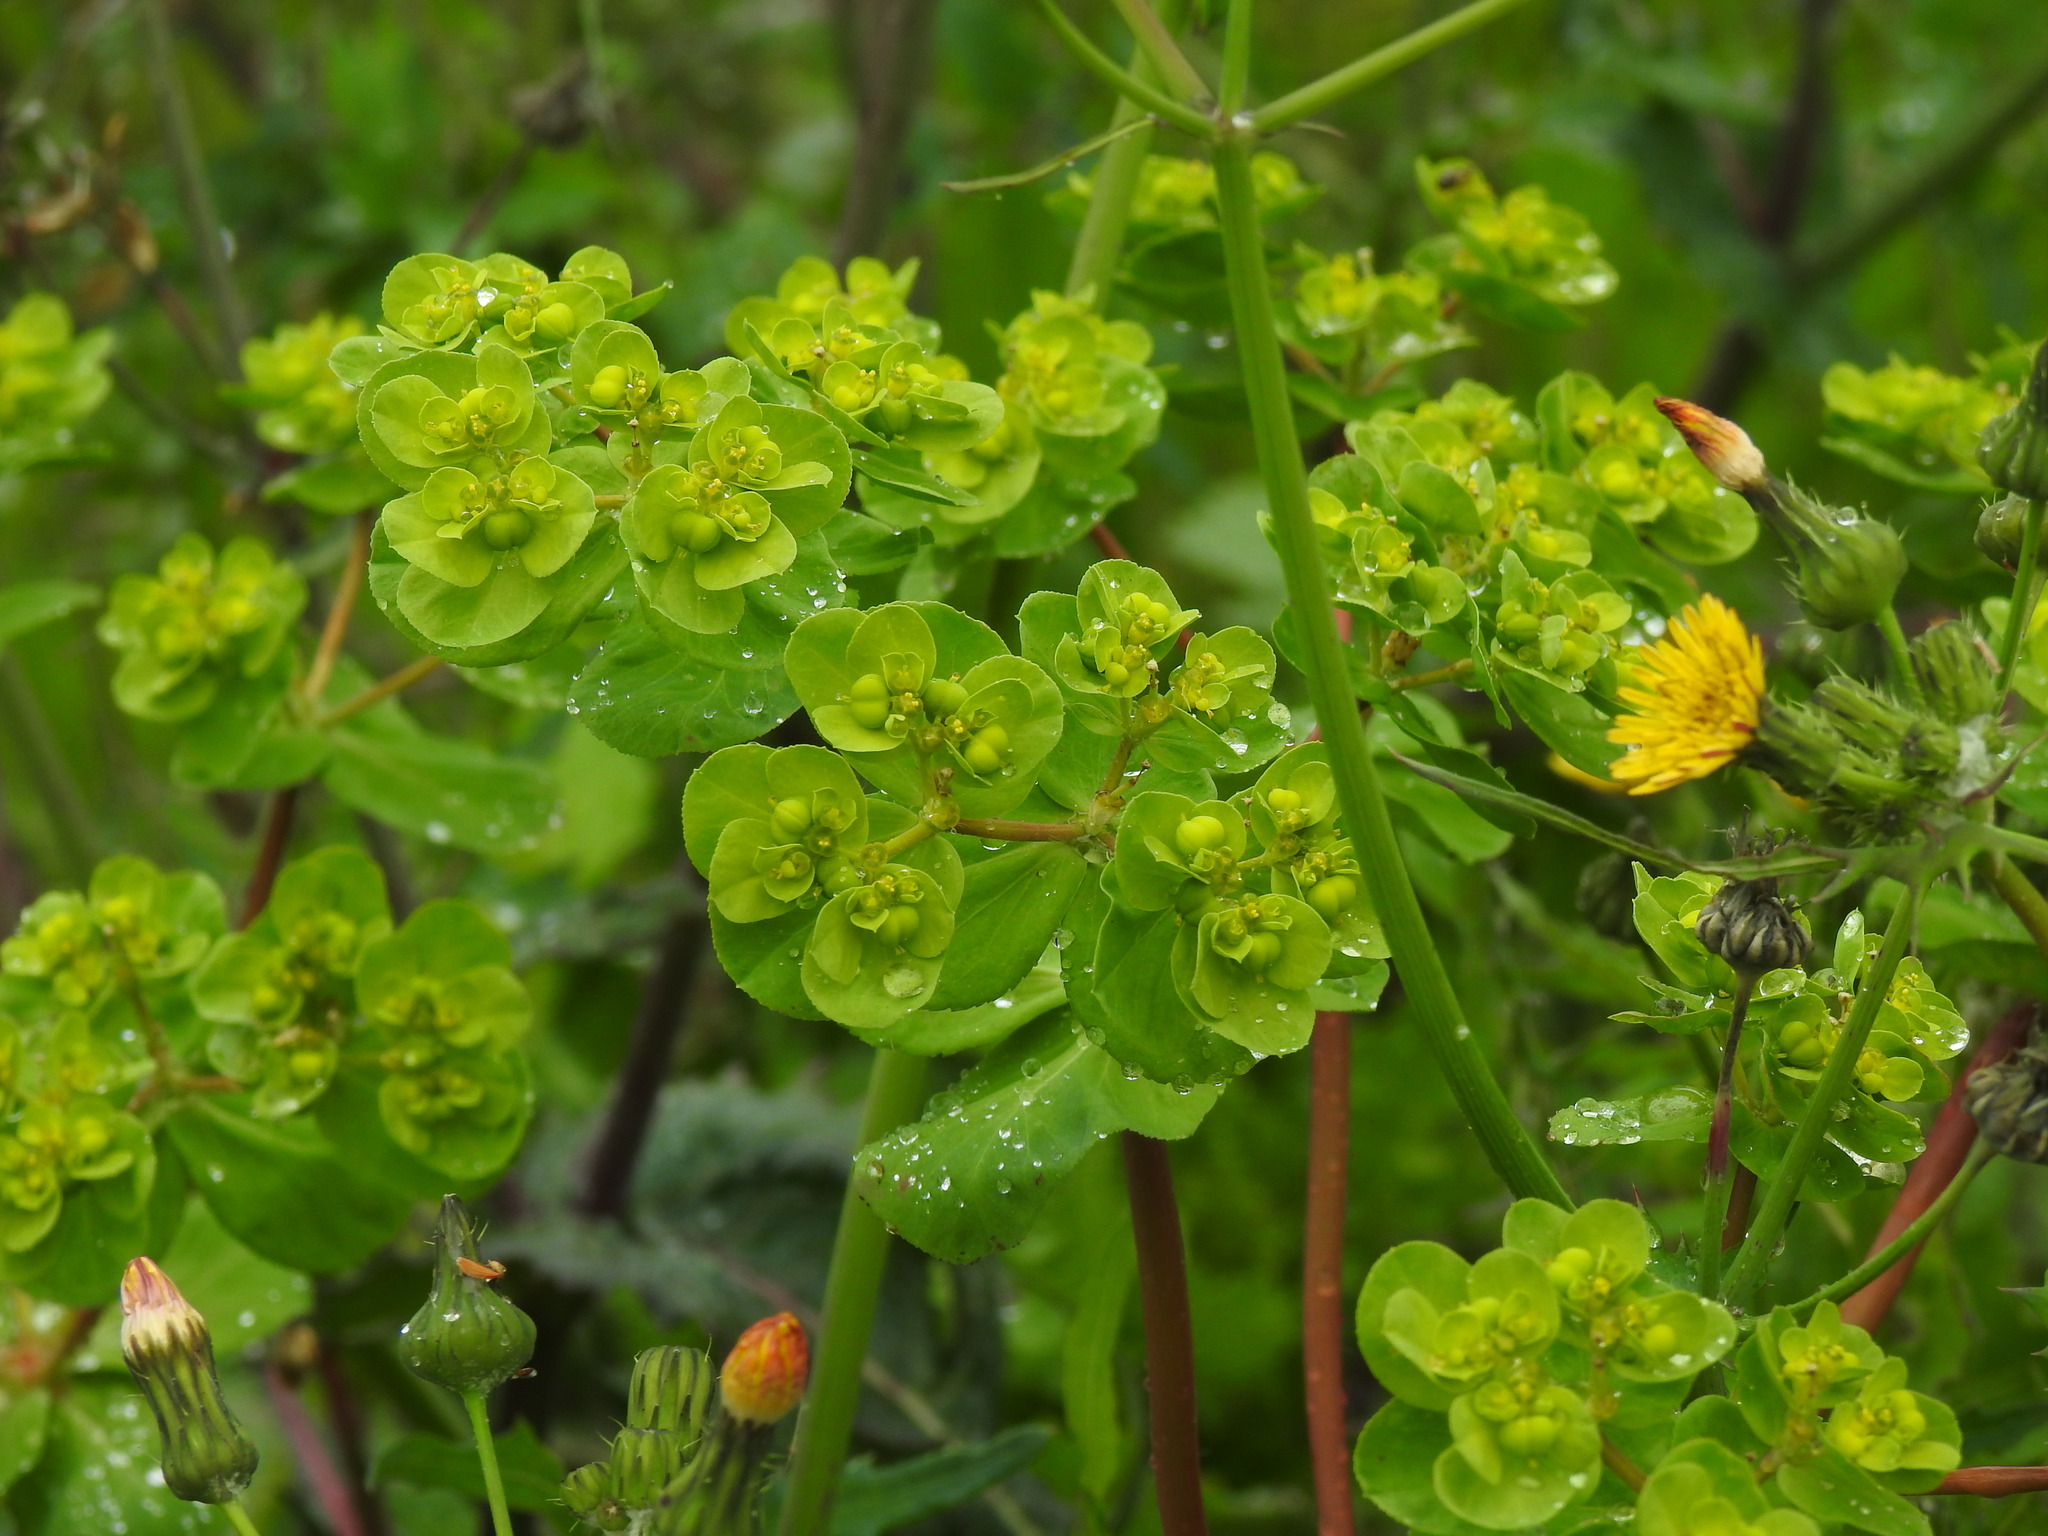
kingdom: Plantae
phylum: Tracheophyta
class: Magnoliopsida
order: Malpighiales
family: Euphorbiaceae
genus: Euphorbia
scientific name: Euphorbia helioscopia
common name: Sun spurge
